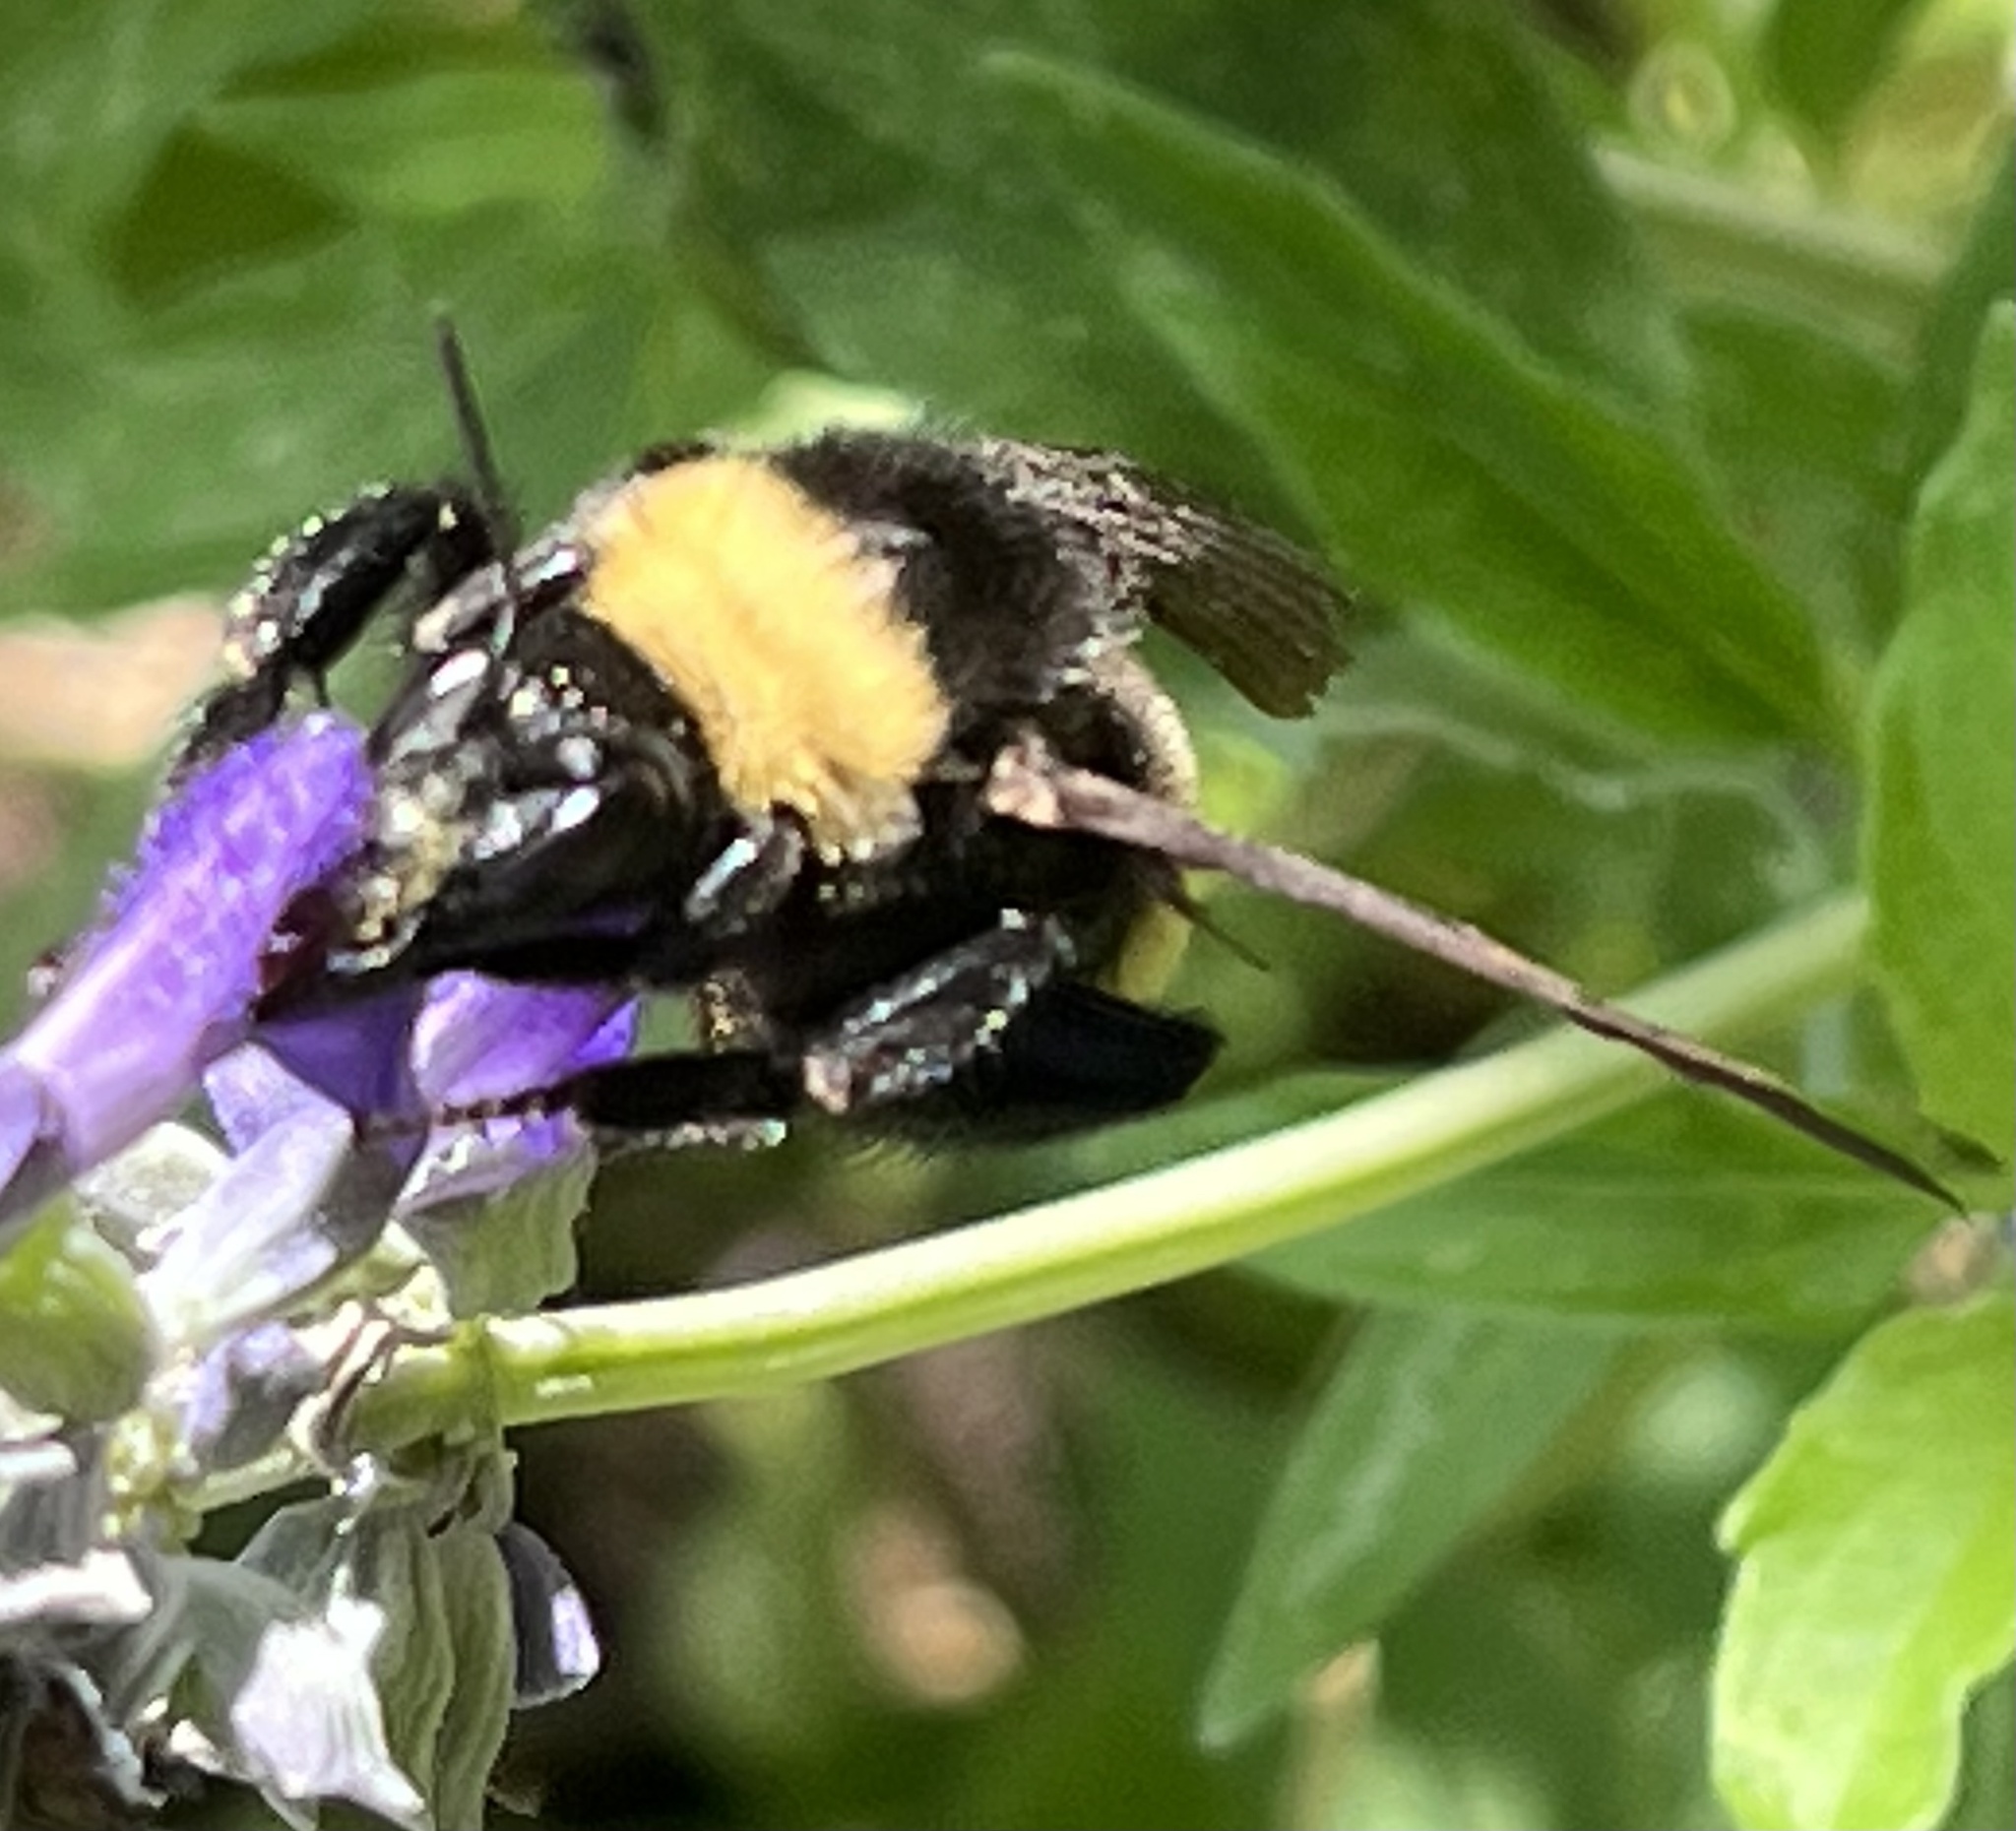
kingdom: Animalia
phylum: Arthropoda
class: Insecta
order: Hymenoptera
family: Apidae
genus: Bombus
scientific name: Bombus pensylvanicus
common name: Bumble bee
